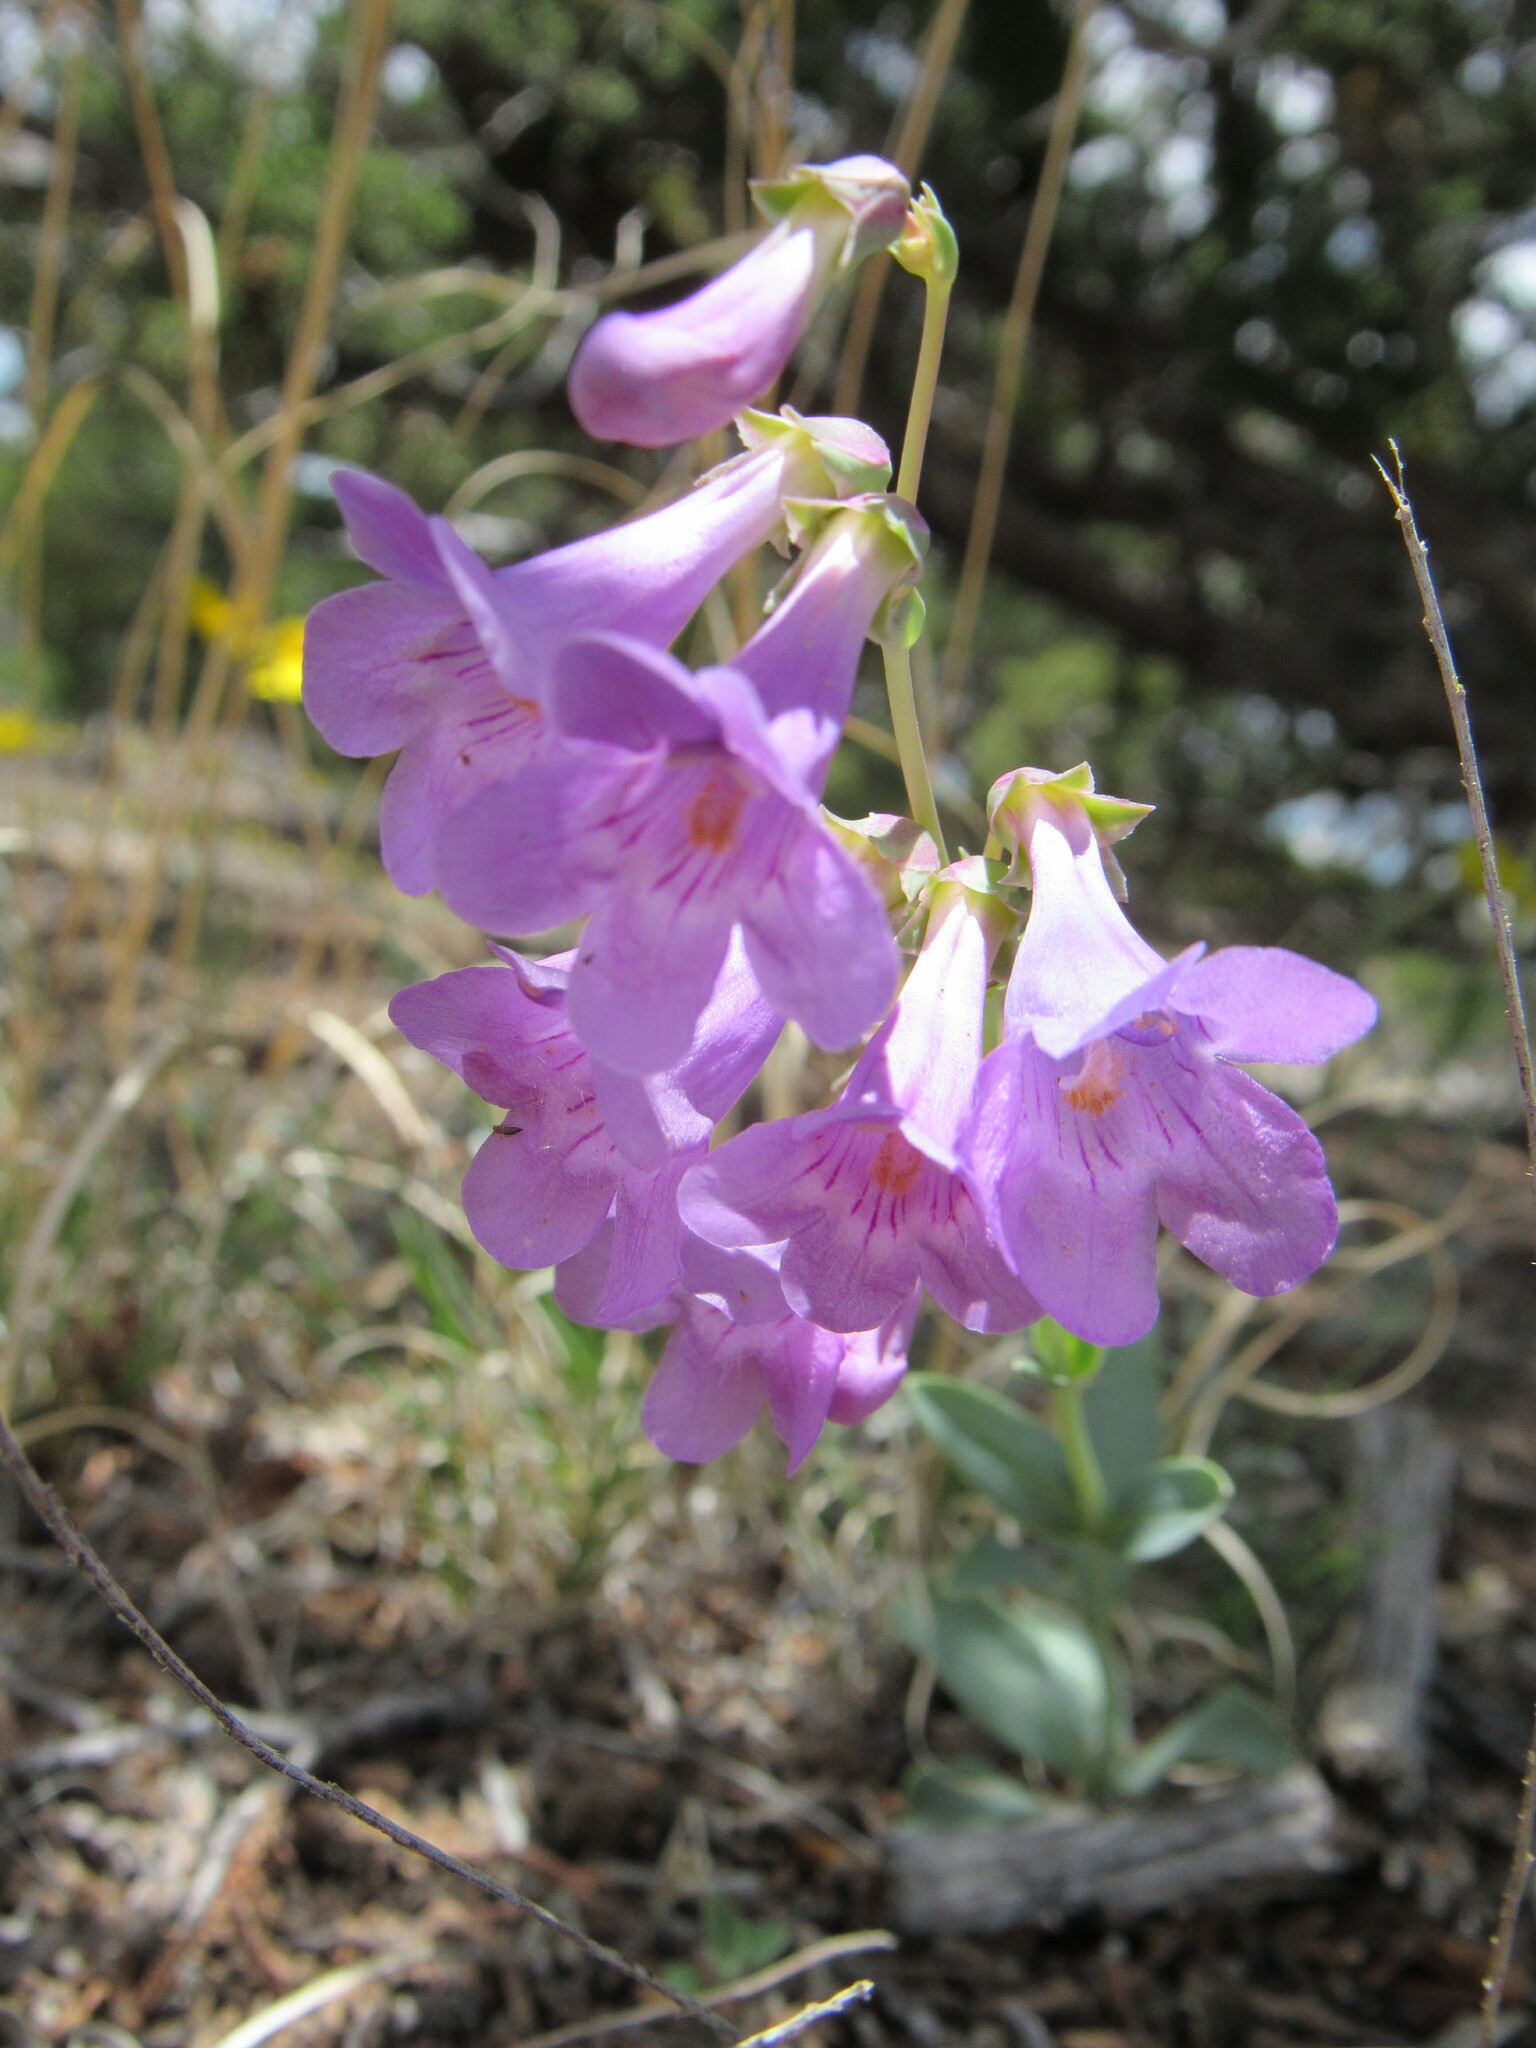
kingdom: Plantae
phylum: Tracheophyta
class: Magnoliopsida
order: Lamiales
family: Plantaginaceae
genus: Penstemon
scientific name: Penstemon secundiflorus
